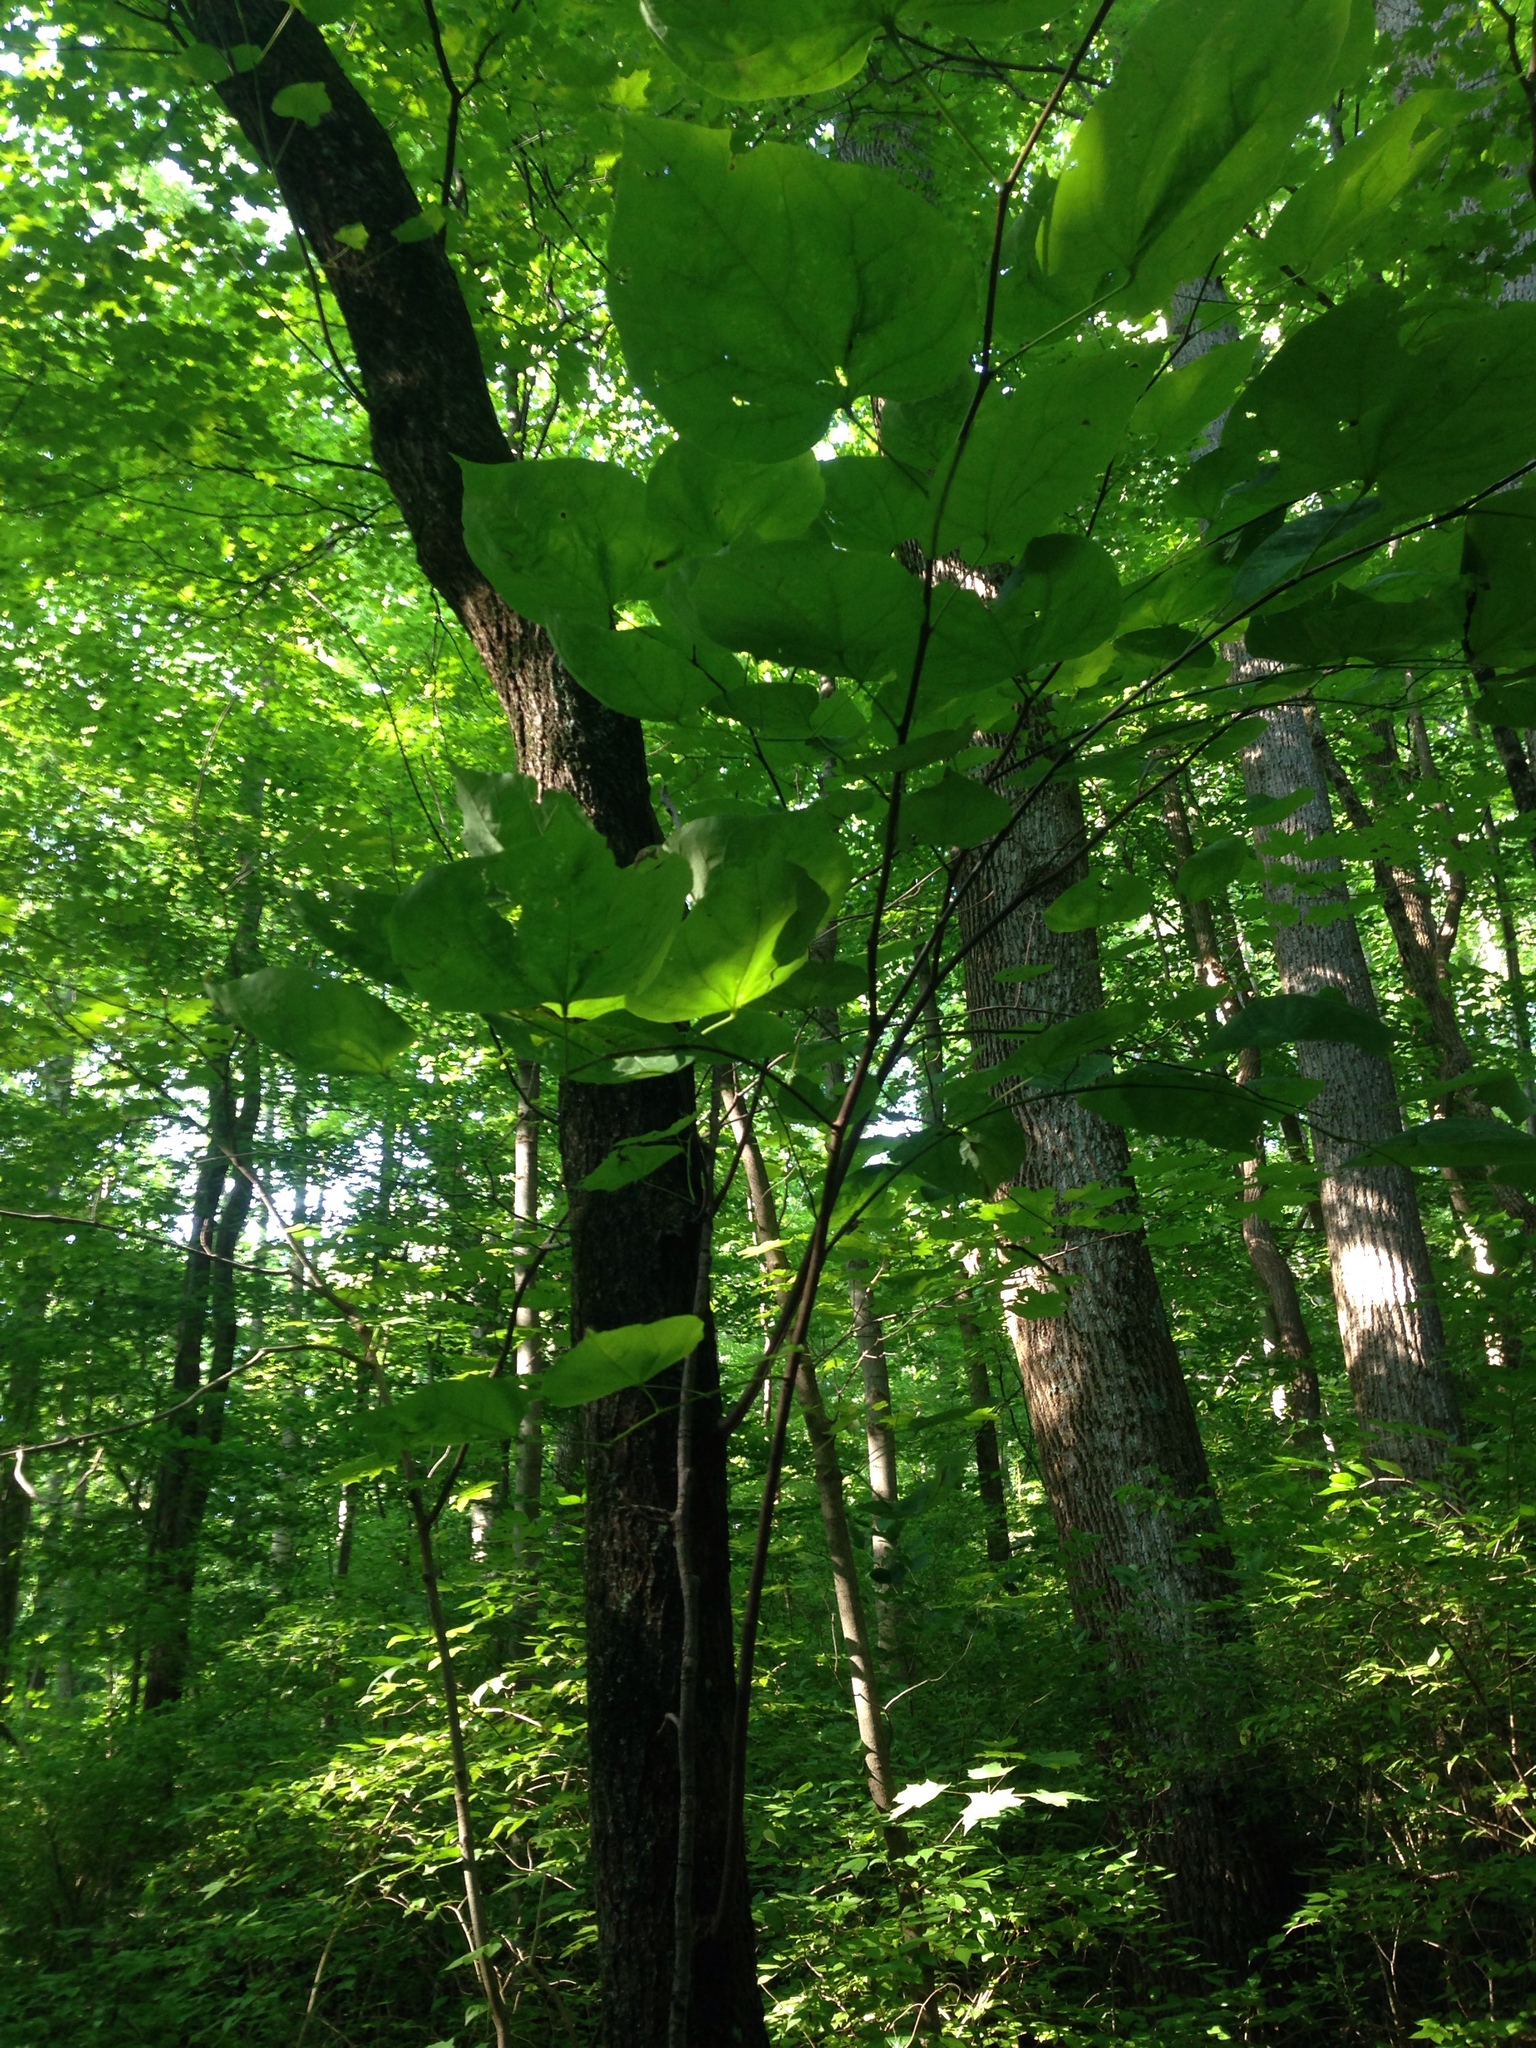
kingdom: Plantae
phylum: Tracheophyta
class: Magnoliopsida
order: Fabales
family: Fabaceae
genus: Cercis
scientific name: Cercis canadensis
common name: Eastern redbud
